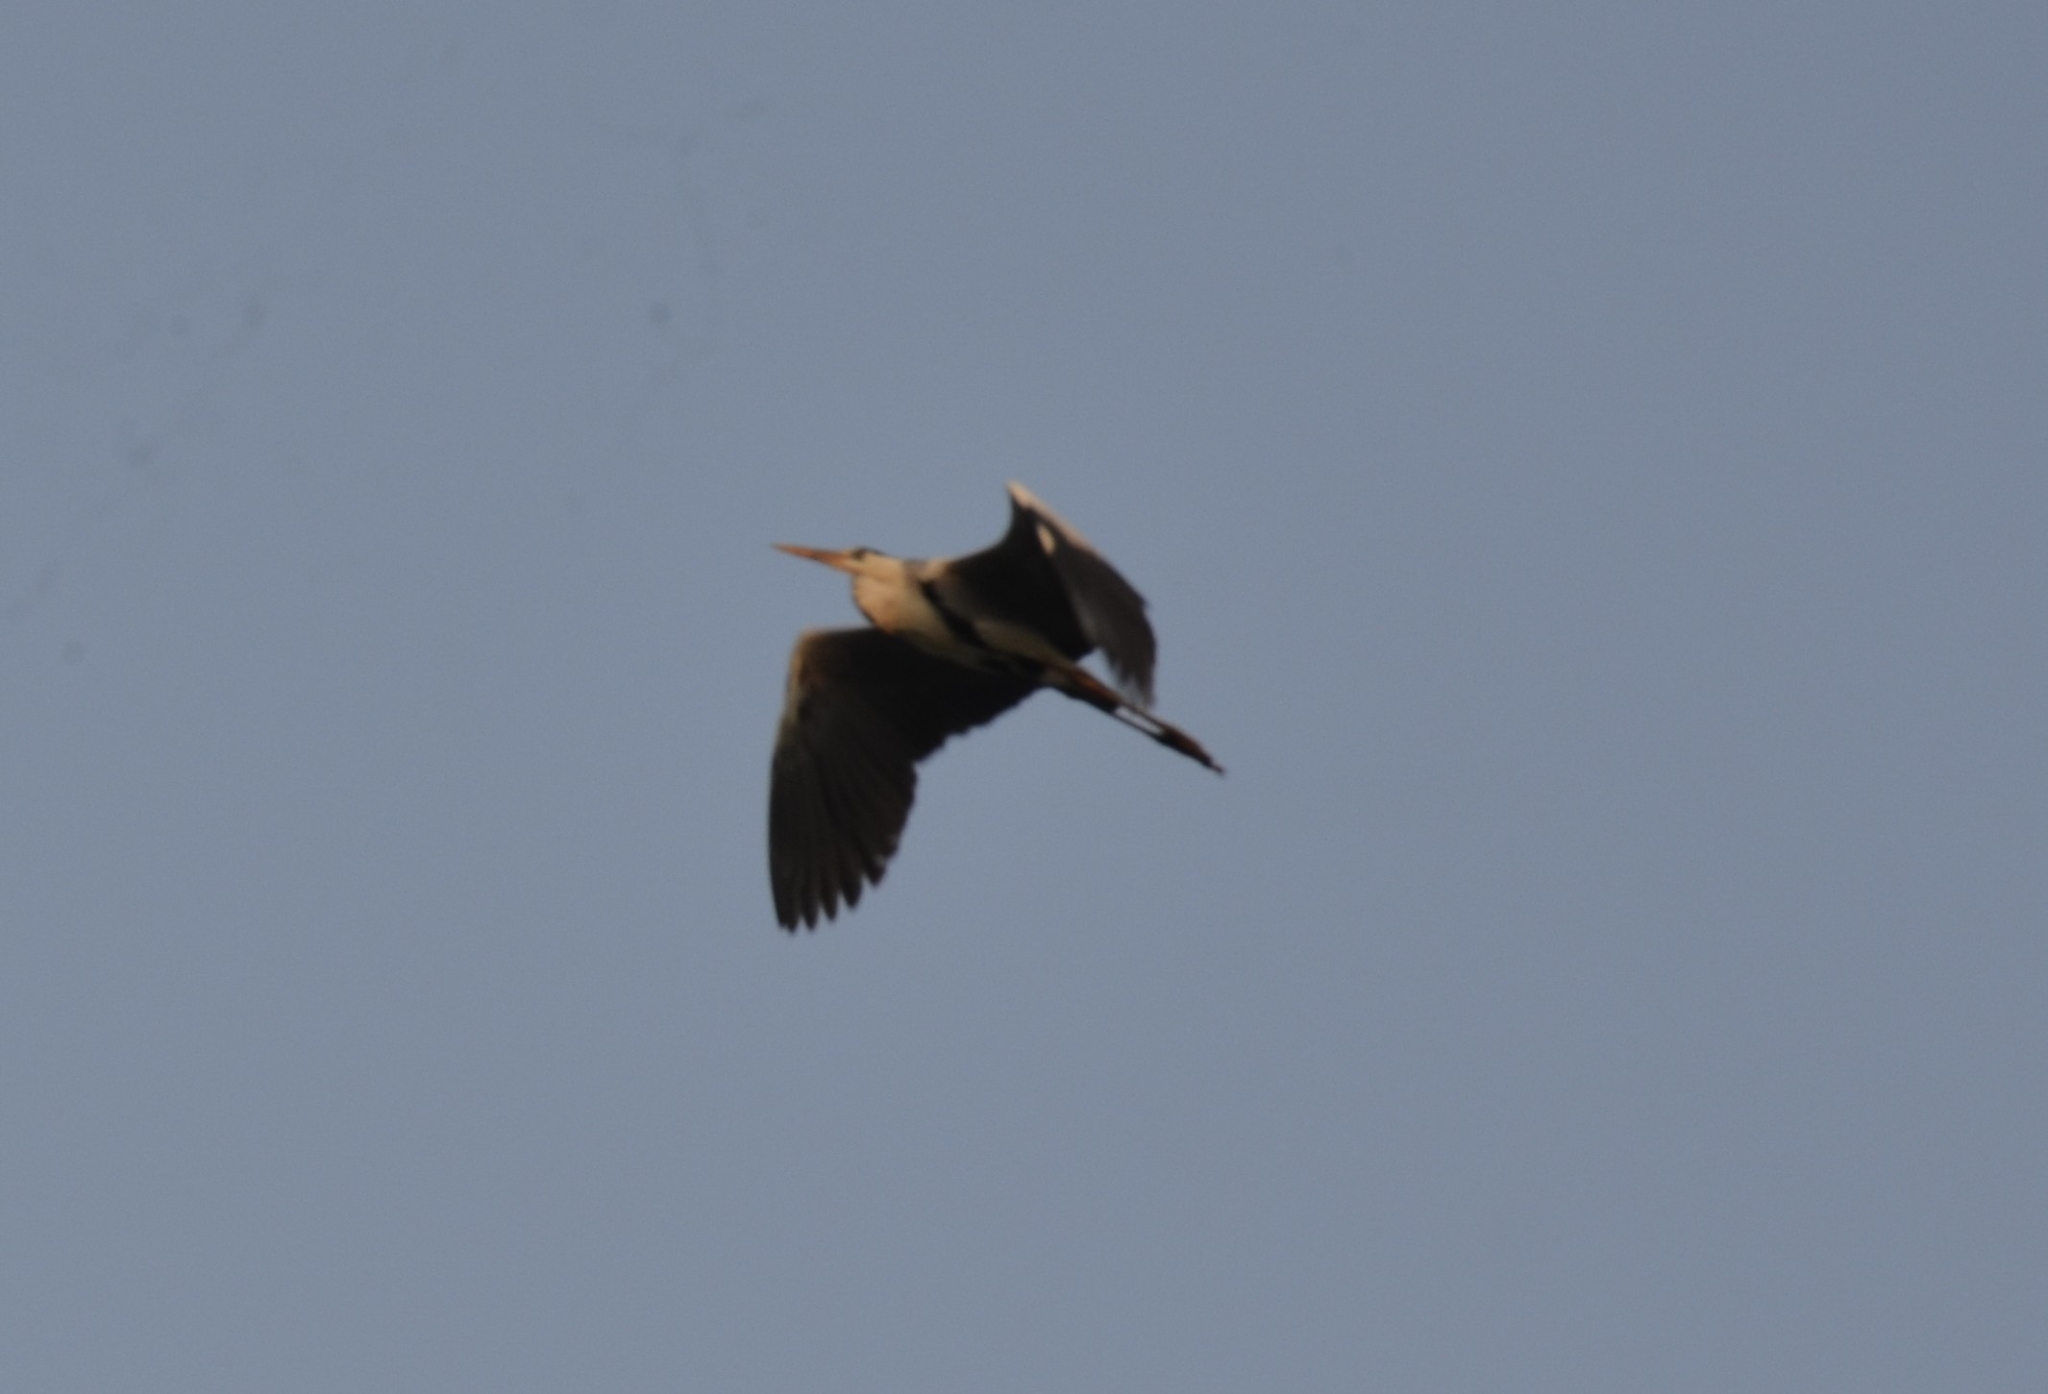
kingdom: Animalia
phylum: Chordata
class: Aves
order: Pelecaniformes
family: Ardeidae
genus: Ardea
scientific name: Ardea cinerea
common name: Grey heron
